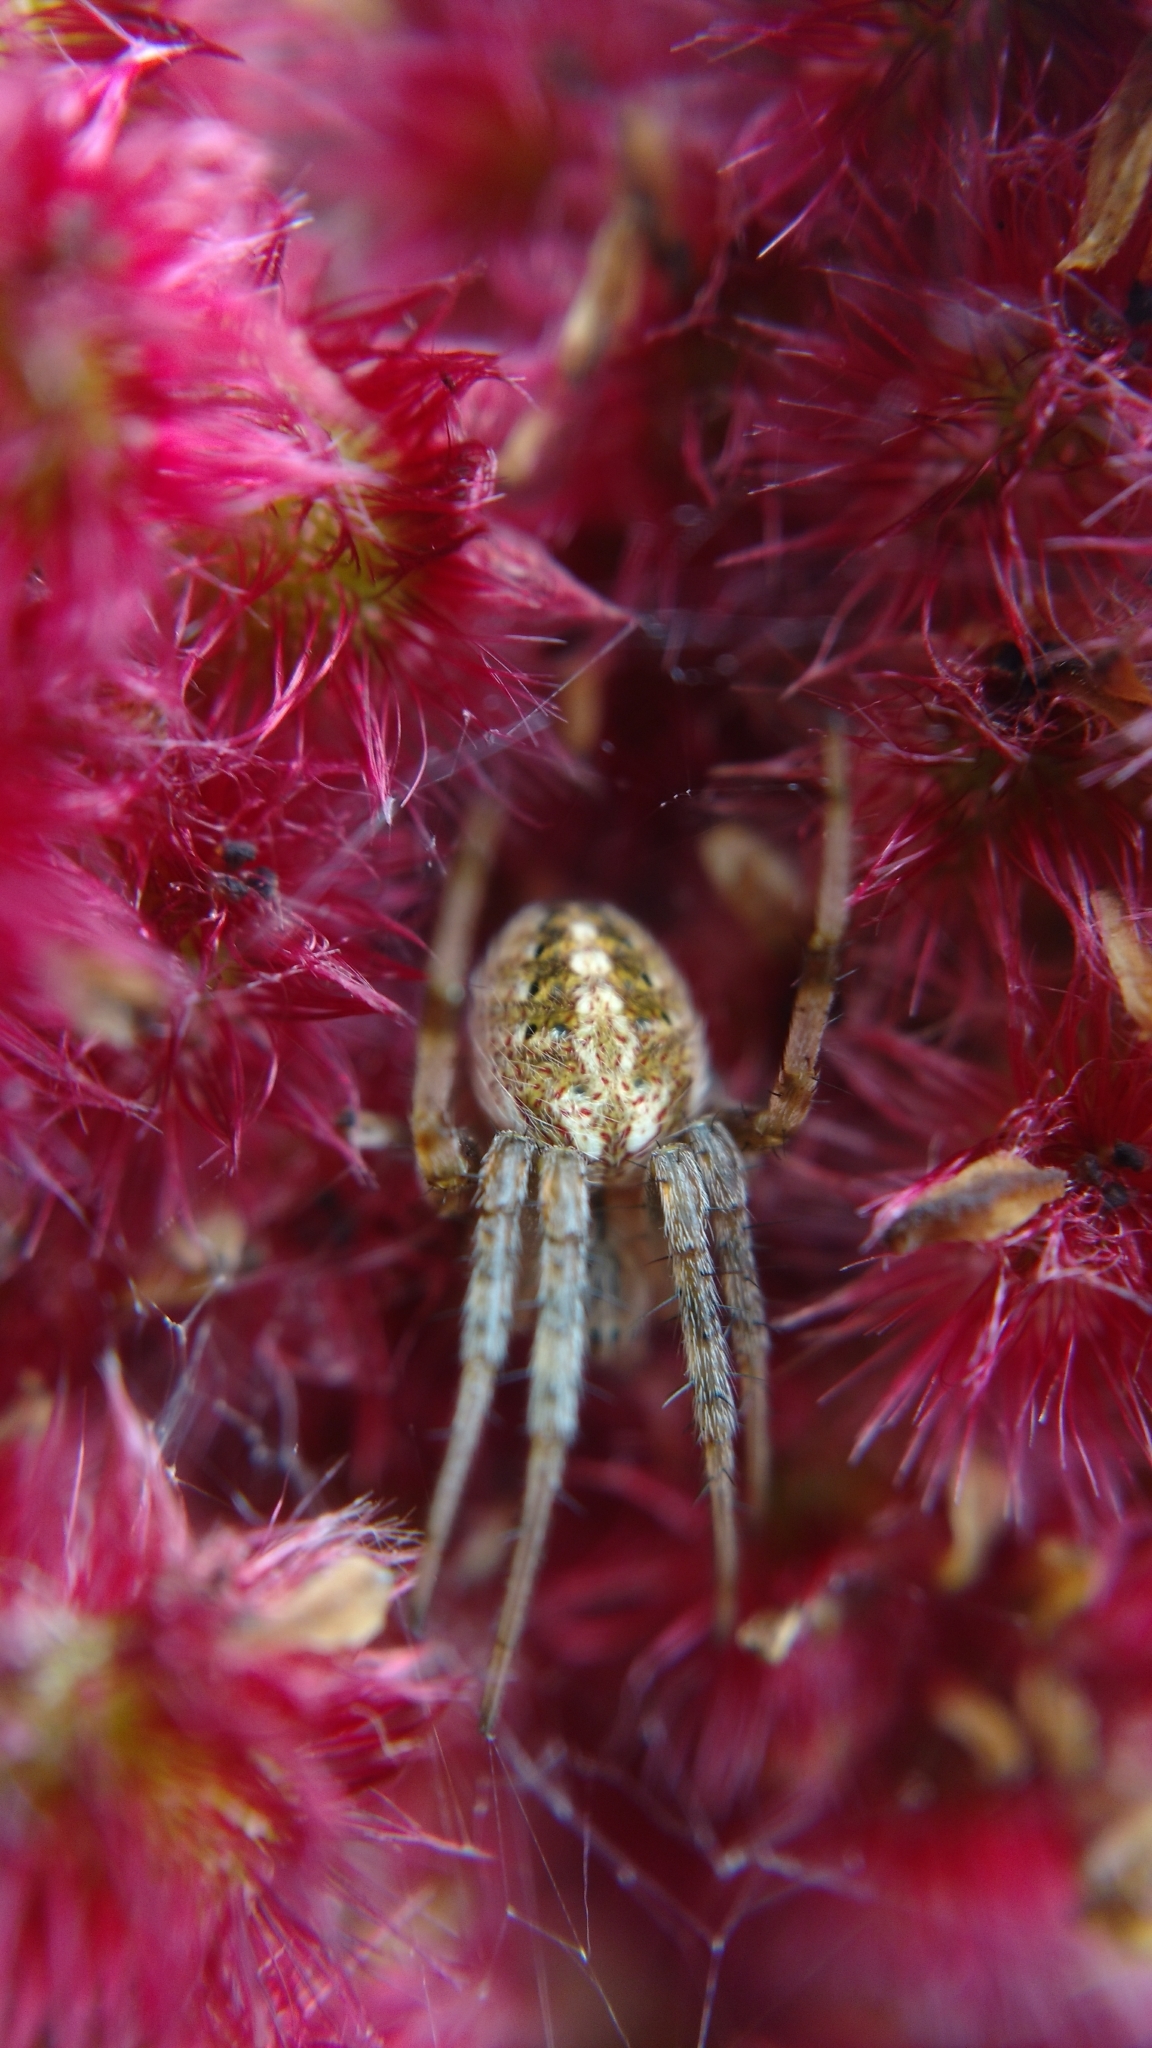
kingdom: Animalia
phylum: Arthropoda
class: Arachnida
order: Araneae
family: Araneidae
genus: Neoscona
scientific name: Neoscona arabesca
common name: Orb weavers
